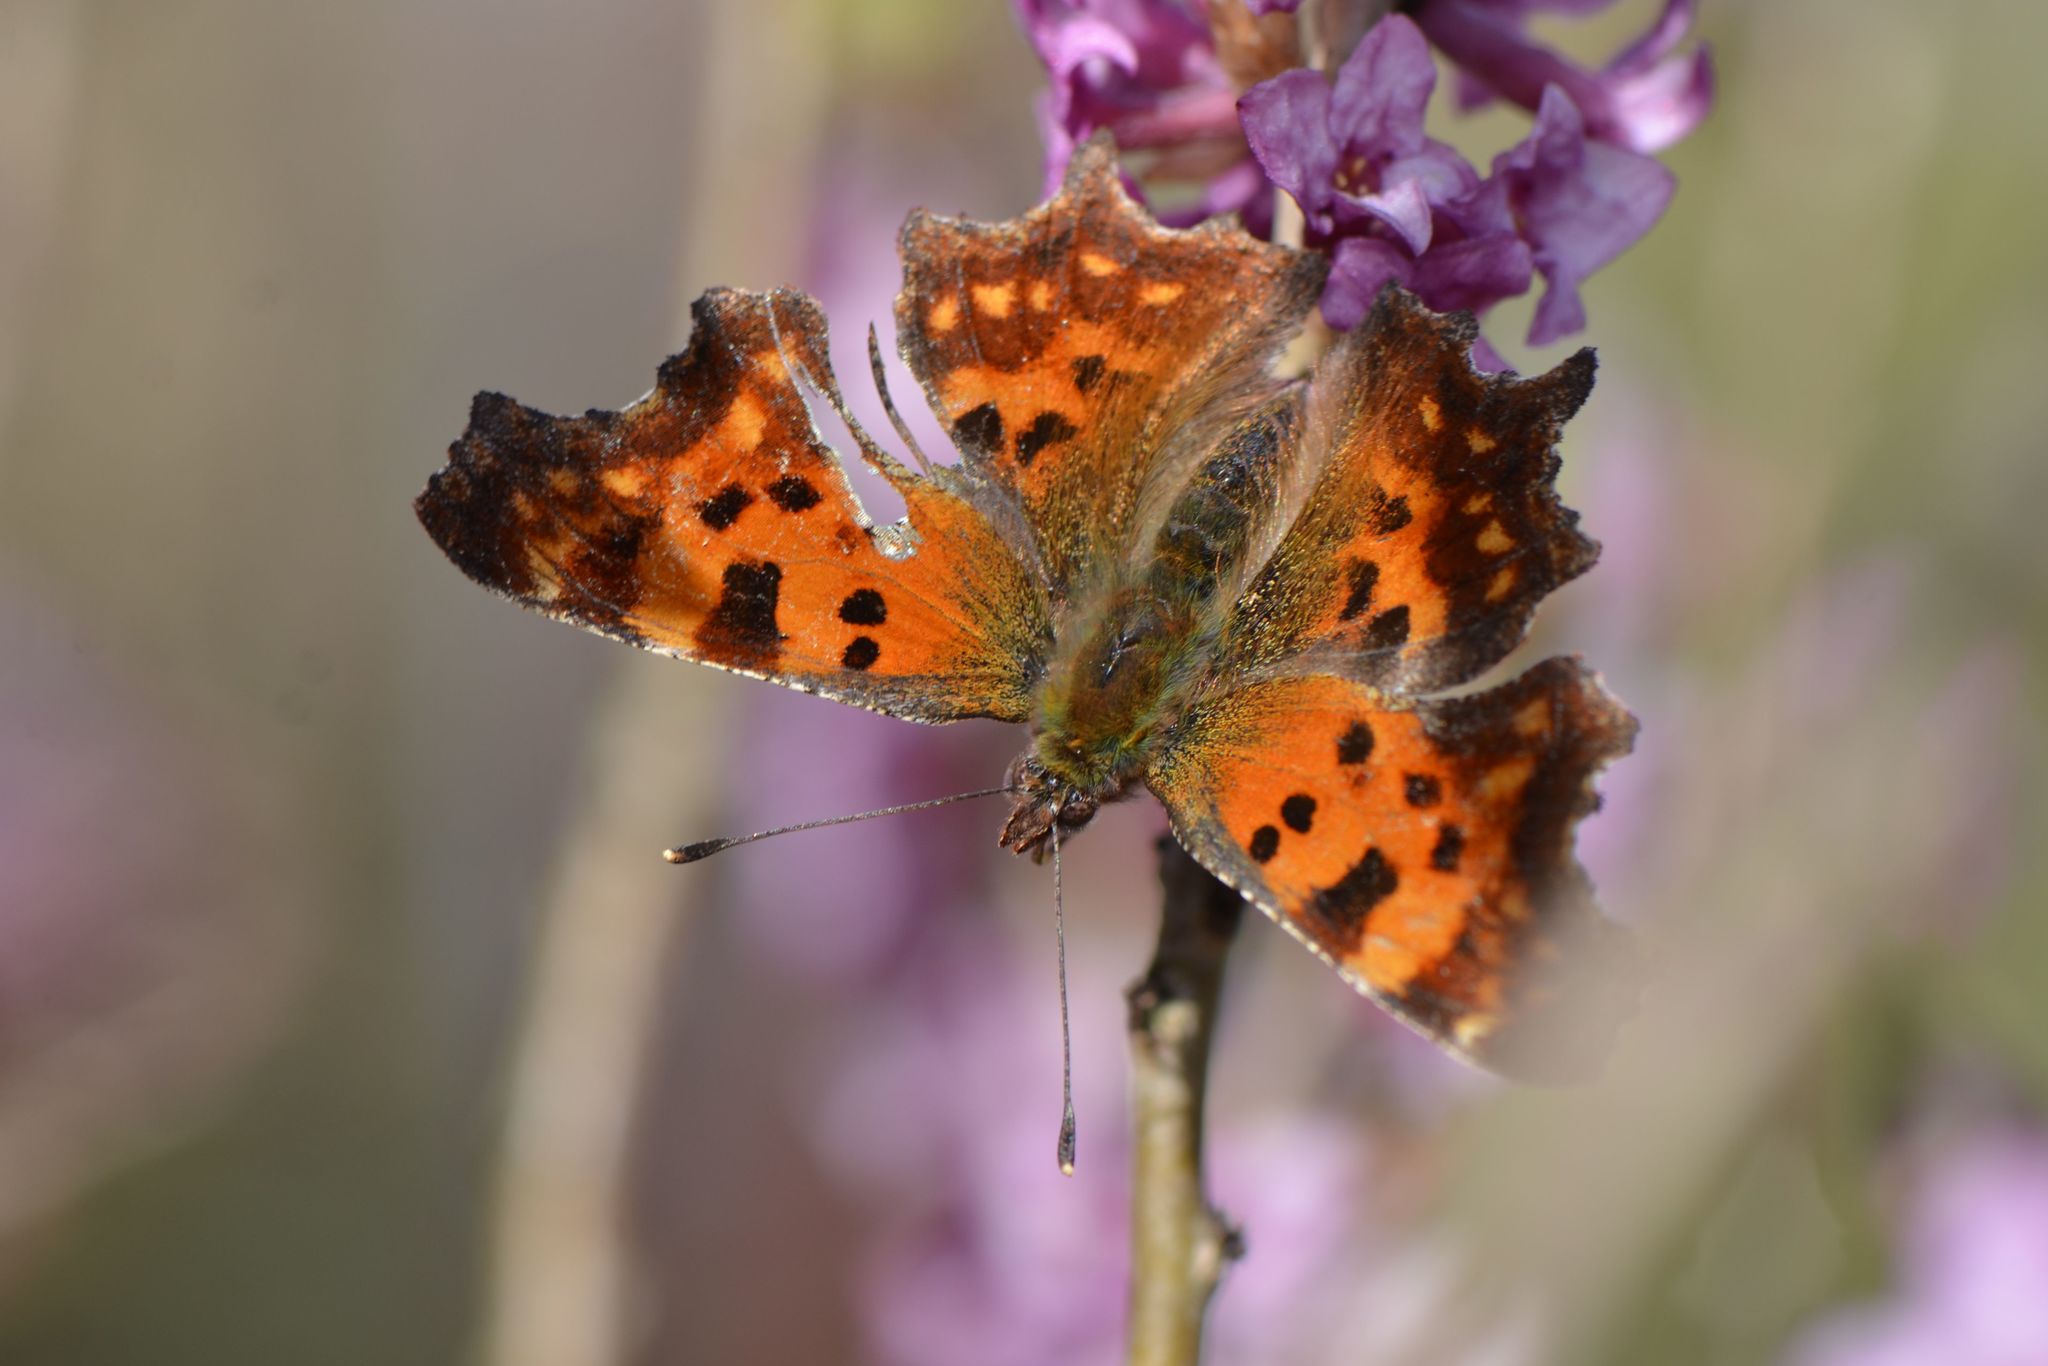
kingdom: Animalia
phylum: Arthropoda
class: Insecta
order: Lepidoptera
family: Nymphalidae
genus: Polygonia
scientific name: Polygonia c-album
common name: Comma
